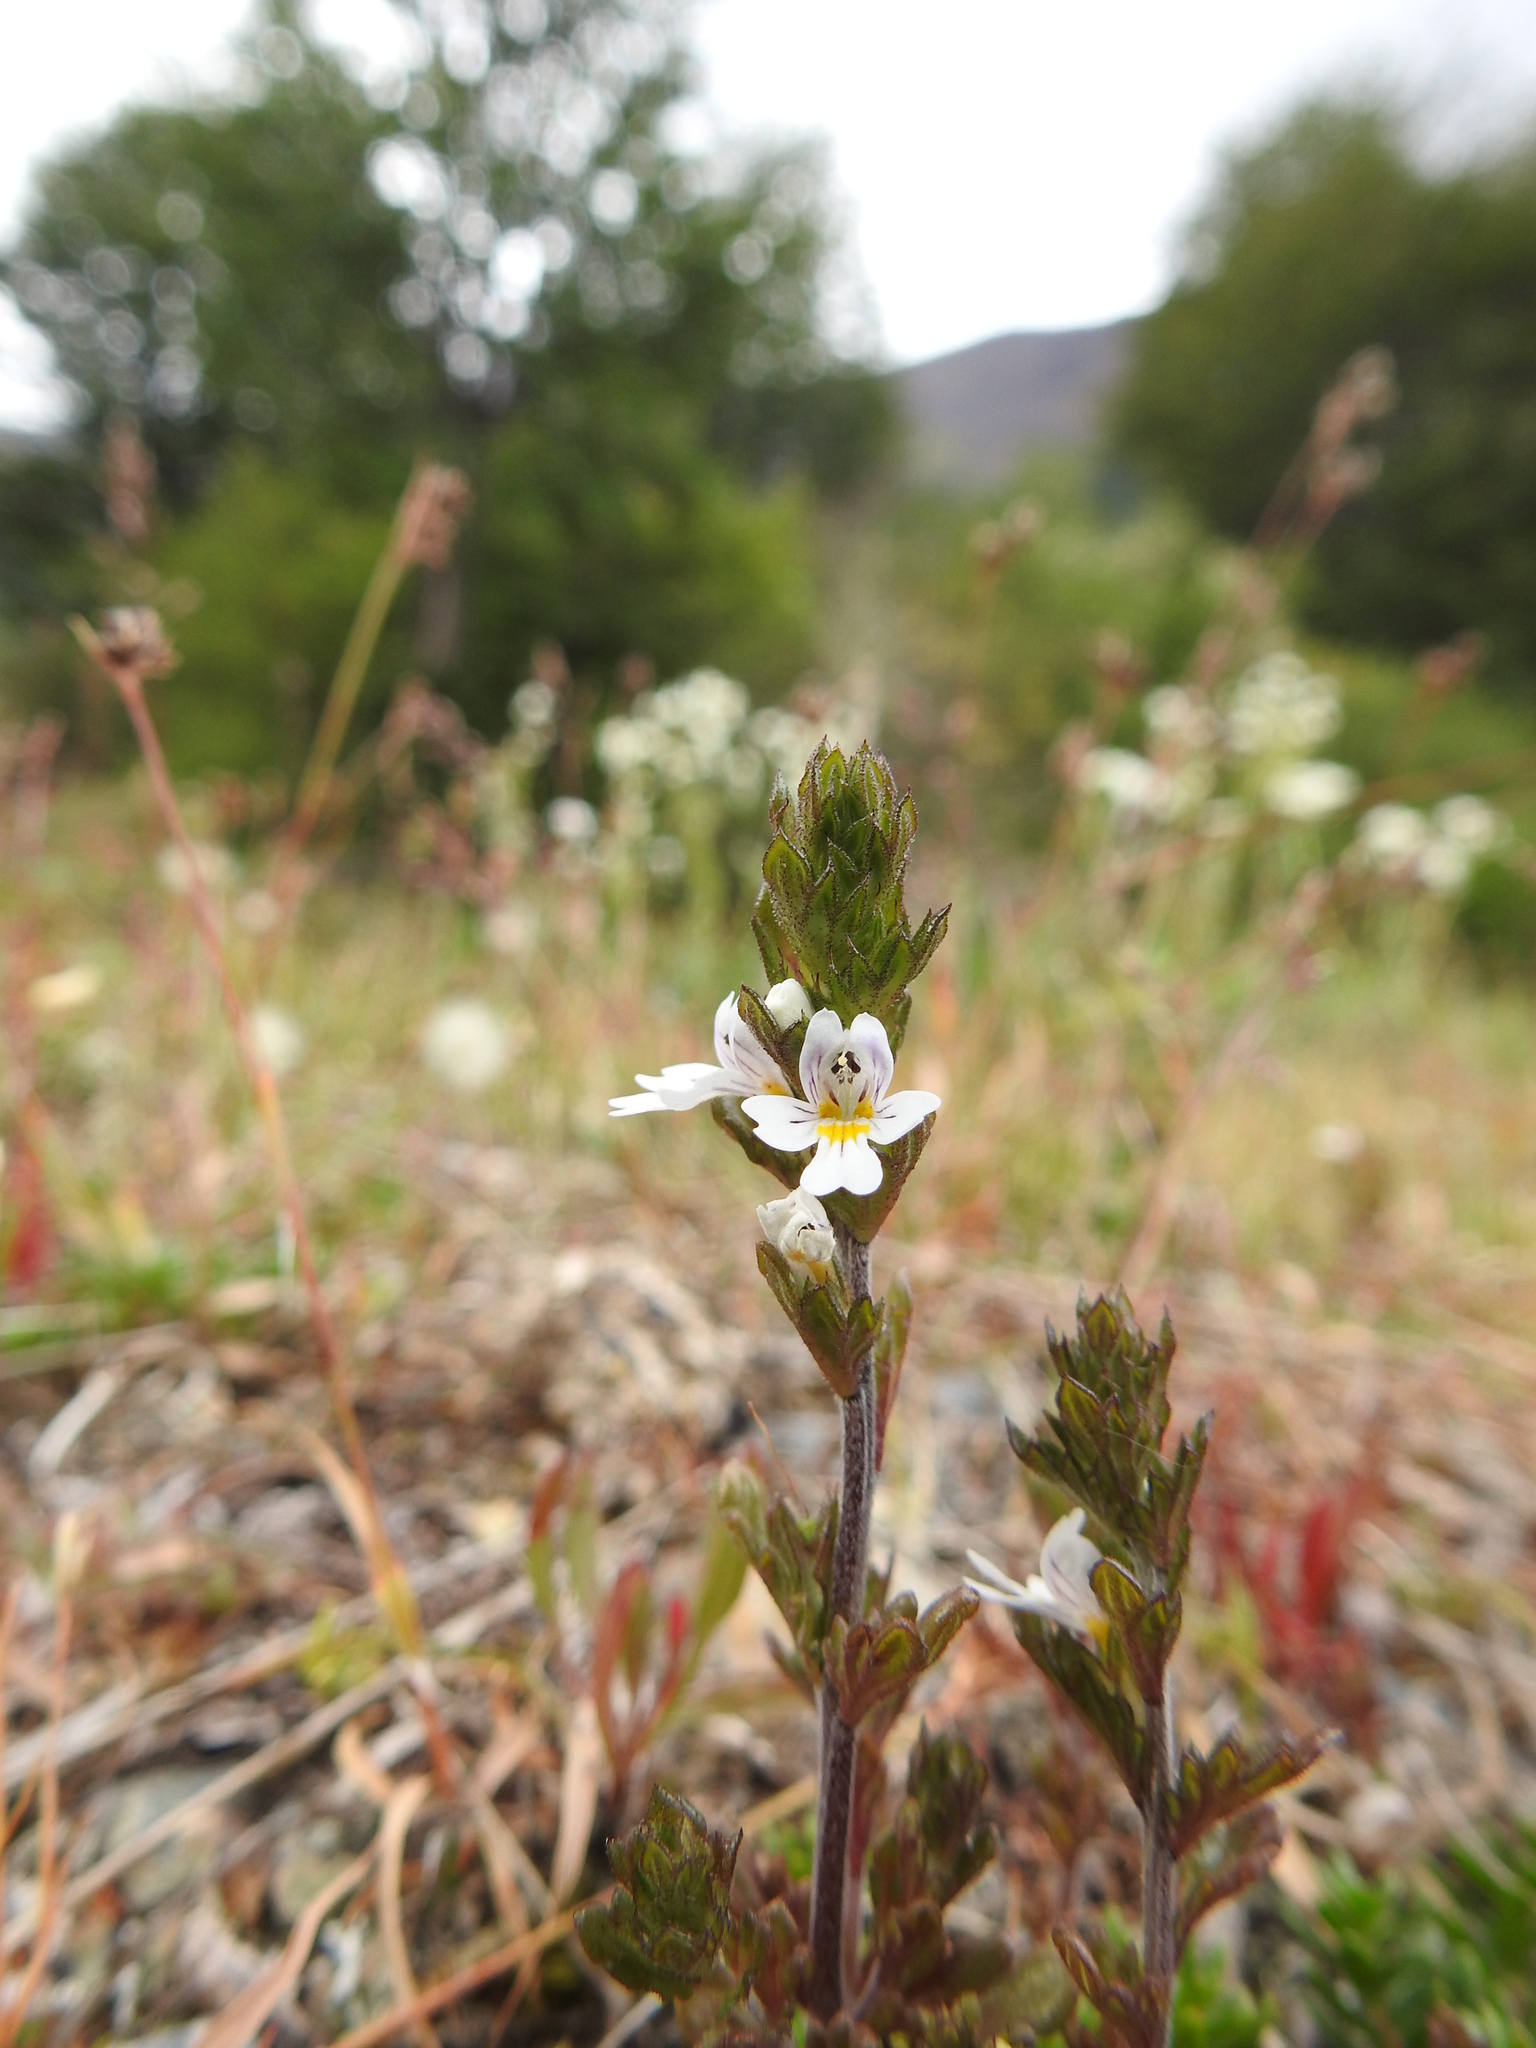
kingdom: Plantae
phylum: Tracheophyta
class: Magnoliopsida
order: Lamiales
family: Orobanchaceae
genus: Euphrasia
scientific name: Euphrasia officinalis
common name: Eyebright
